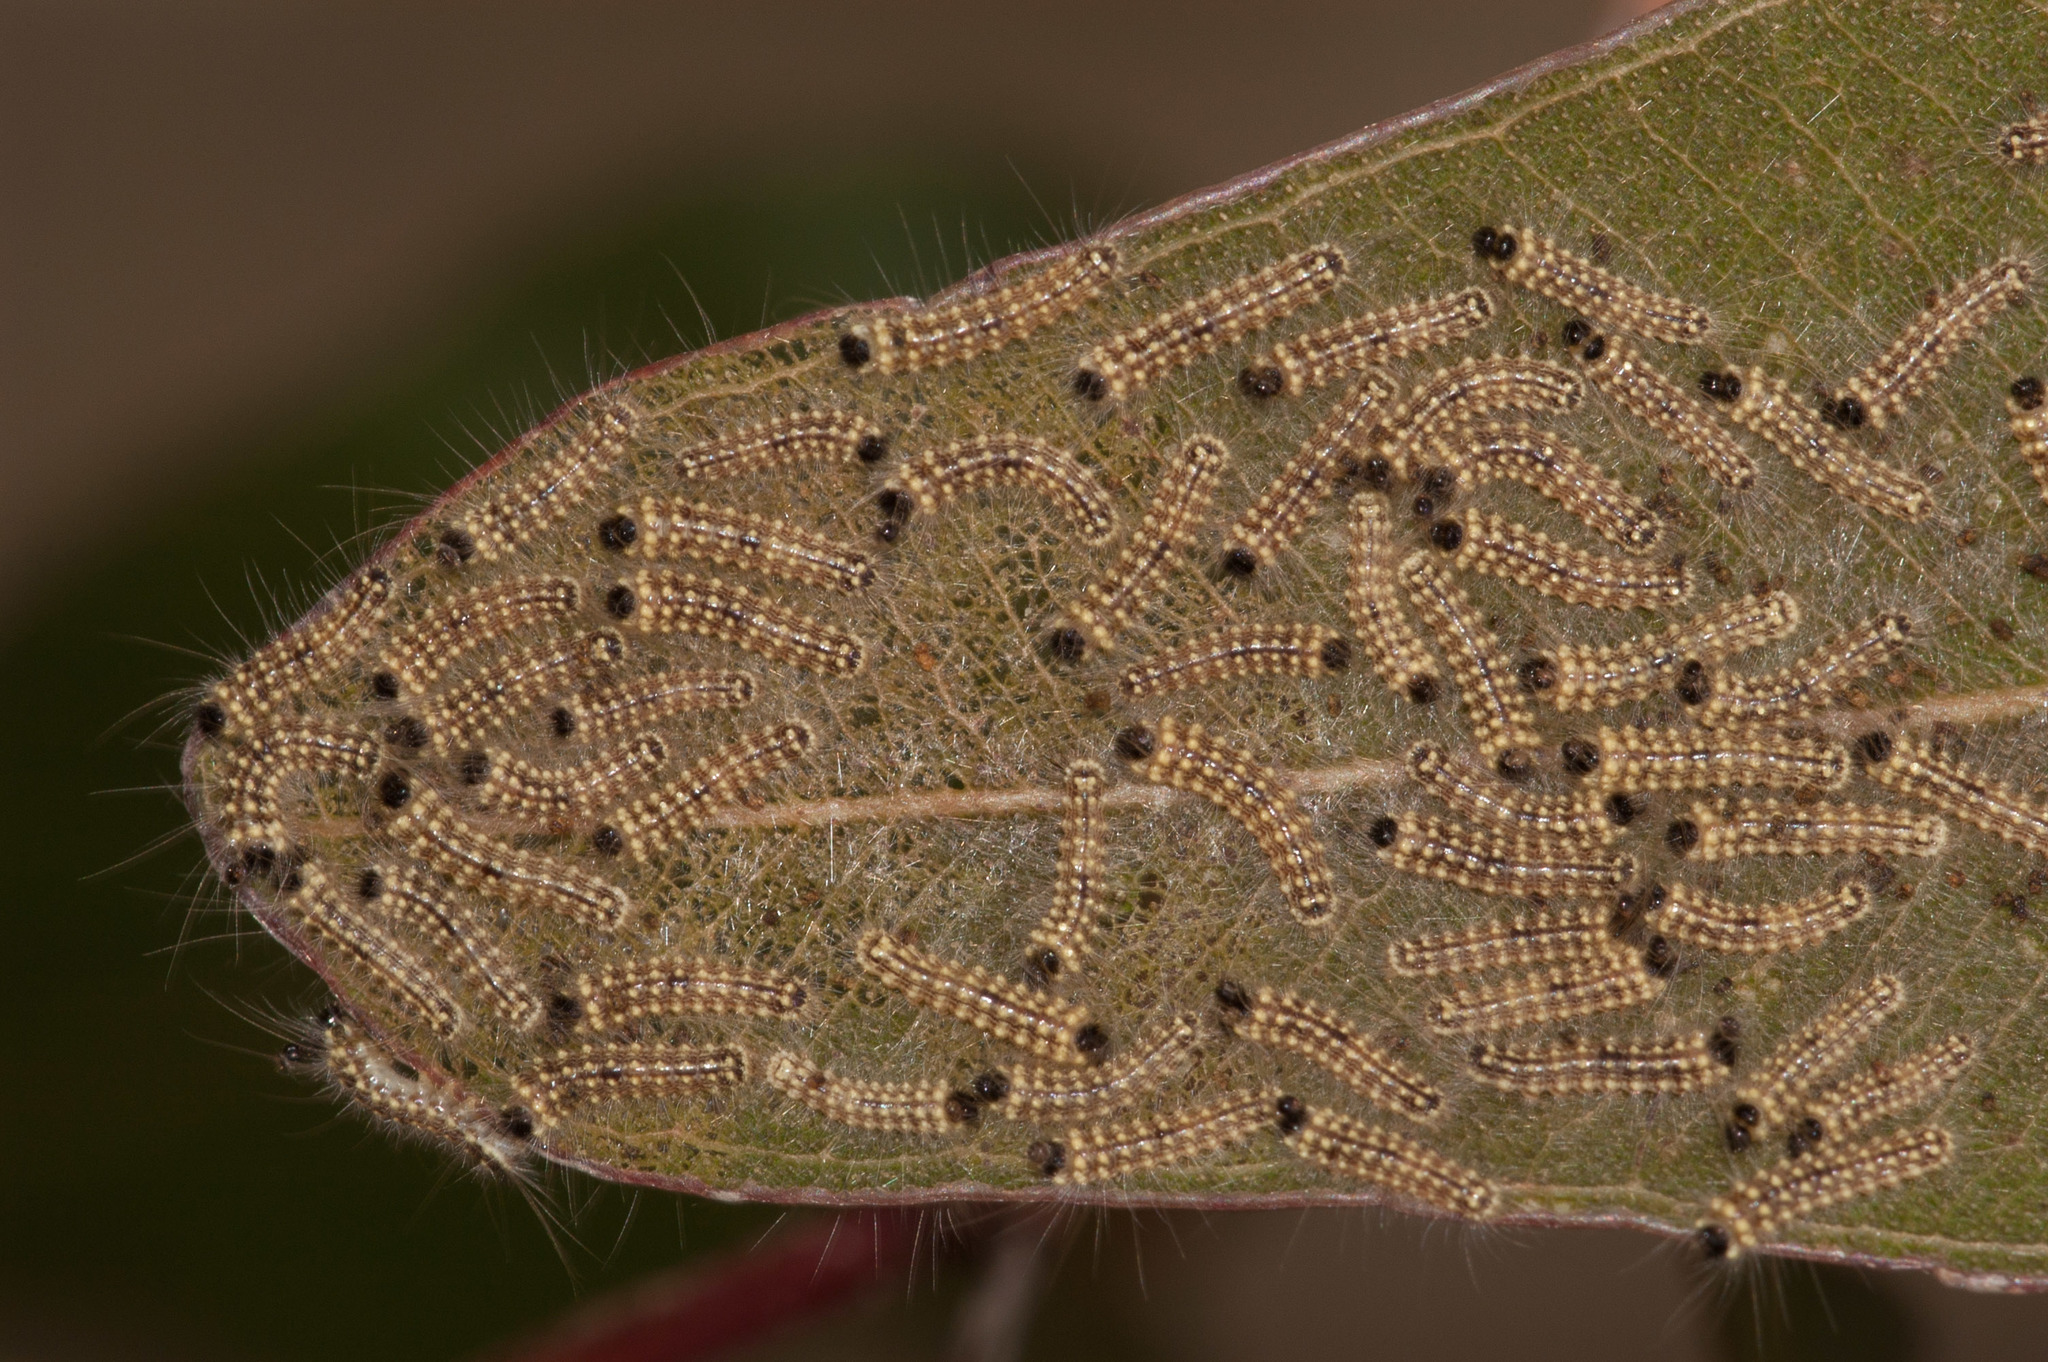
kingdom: Animalia
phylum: Arthropoda
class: Insecta
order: Lepidoptera
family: Nolidae
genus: Uraba
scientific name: Uraba lugens
